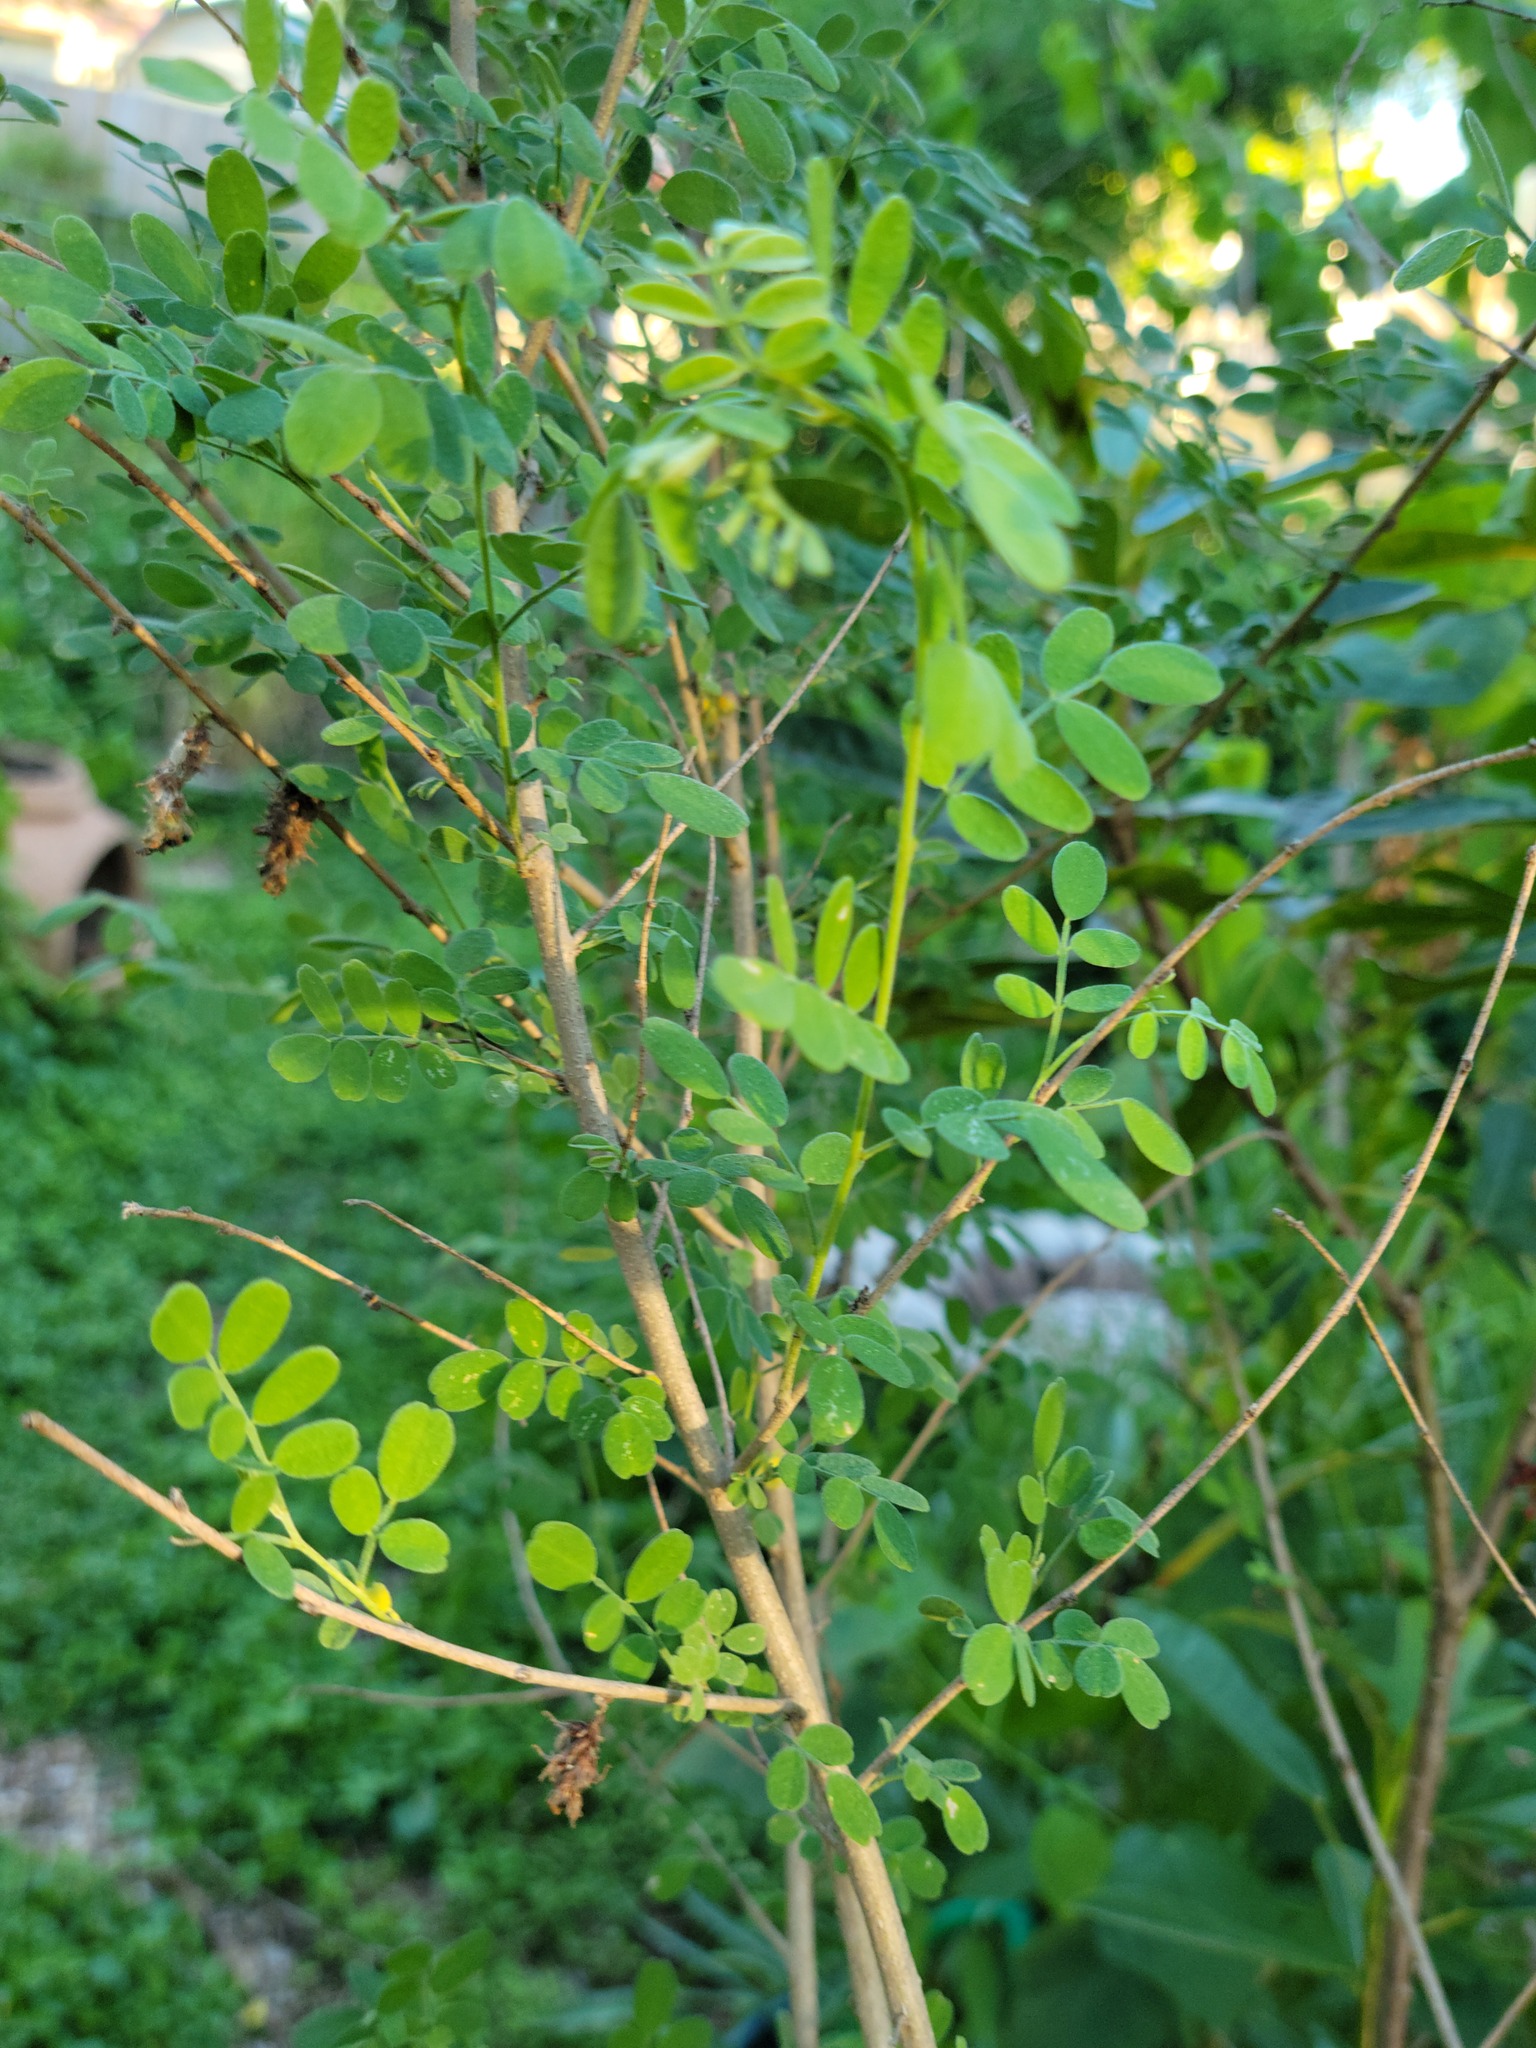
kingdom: Plantae
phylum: Tracheophyta
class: Magnoliopsida
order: Fabales
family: Fabaceae
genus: Coursetia
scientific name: Coursetia axillaris
